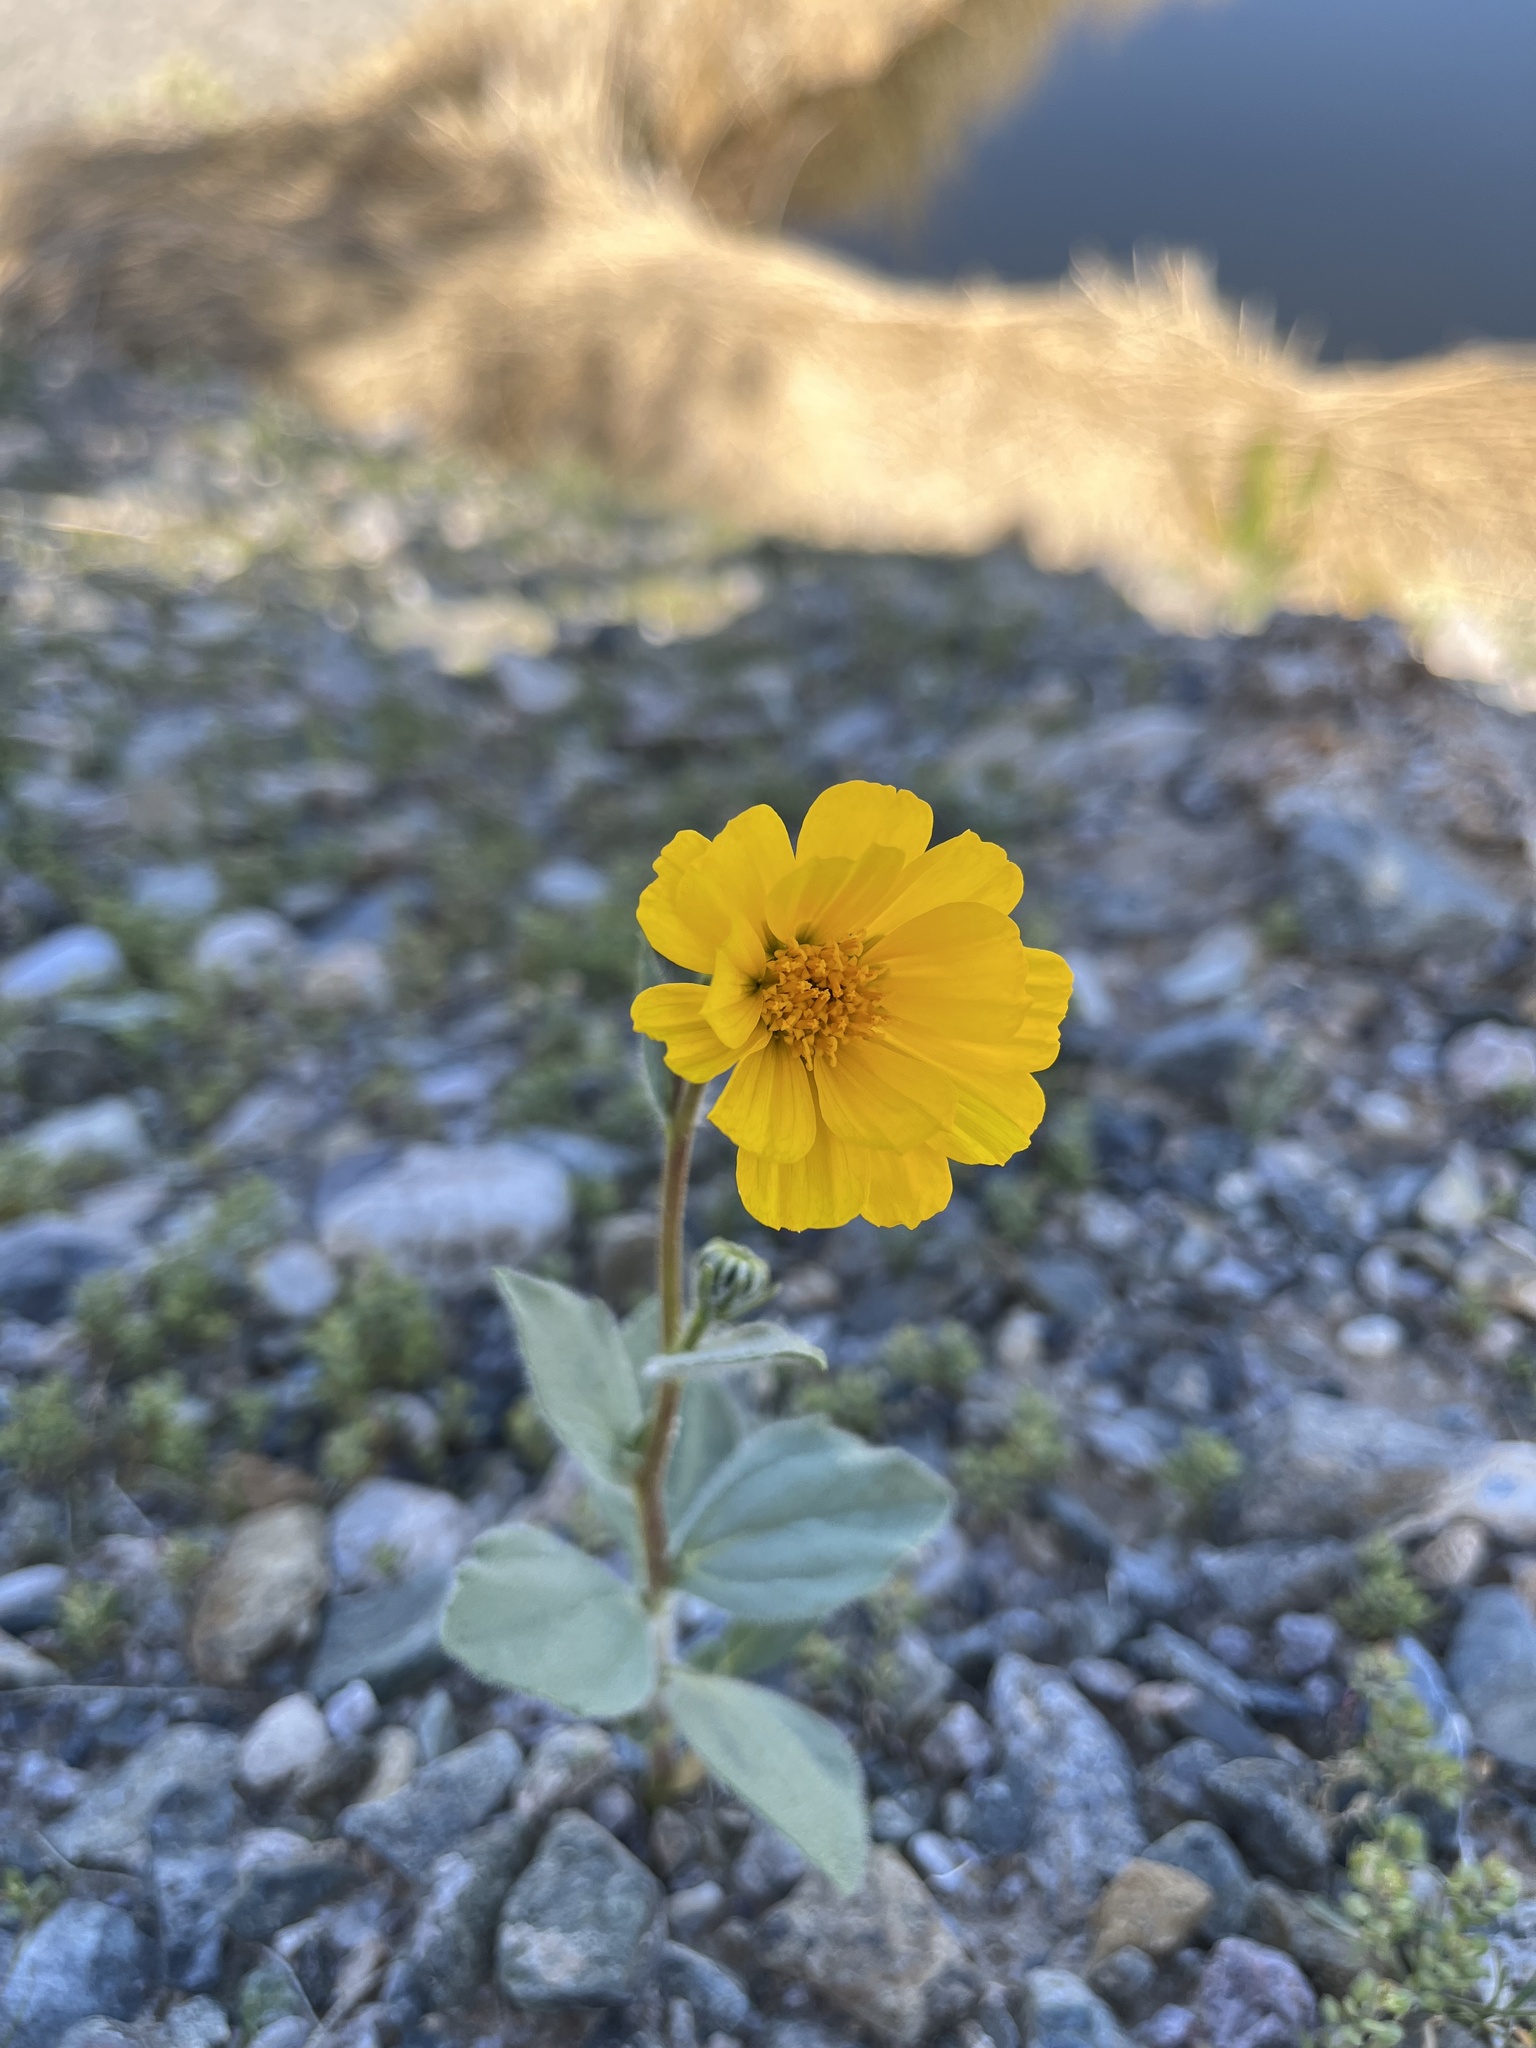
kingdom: Plantae
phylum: Tracheophyta
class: Magnoliopsida
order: Asterales
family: Asteraceae
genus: Geraea
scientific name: Geraea canescens
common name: Desert-gold
